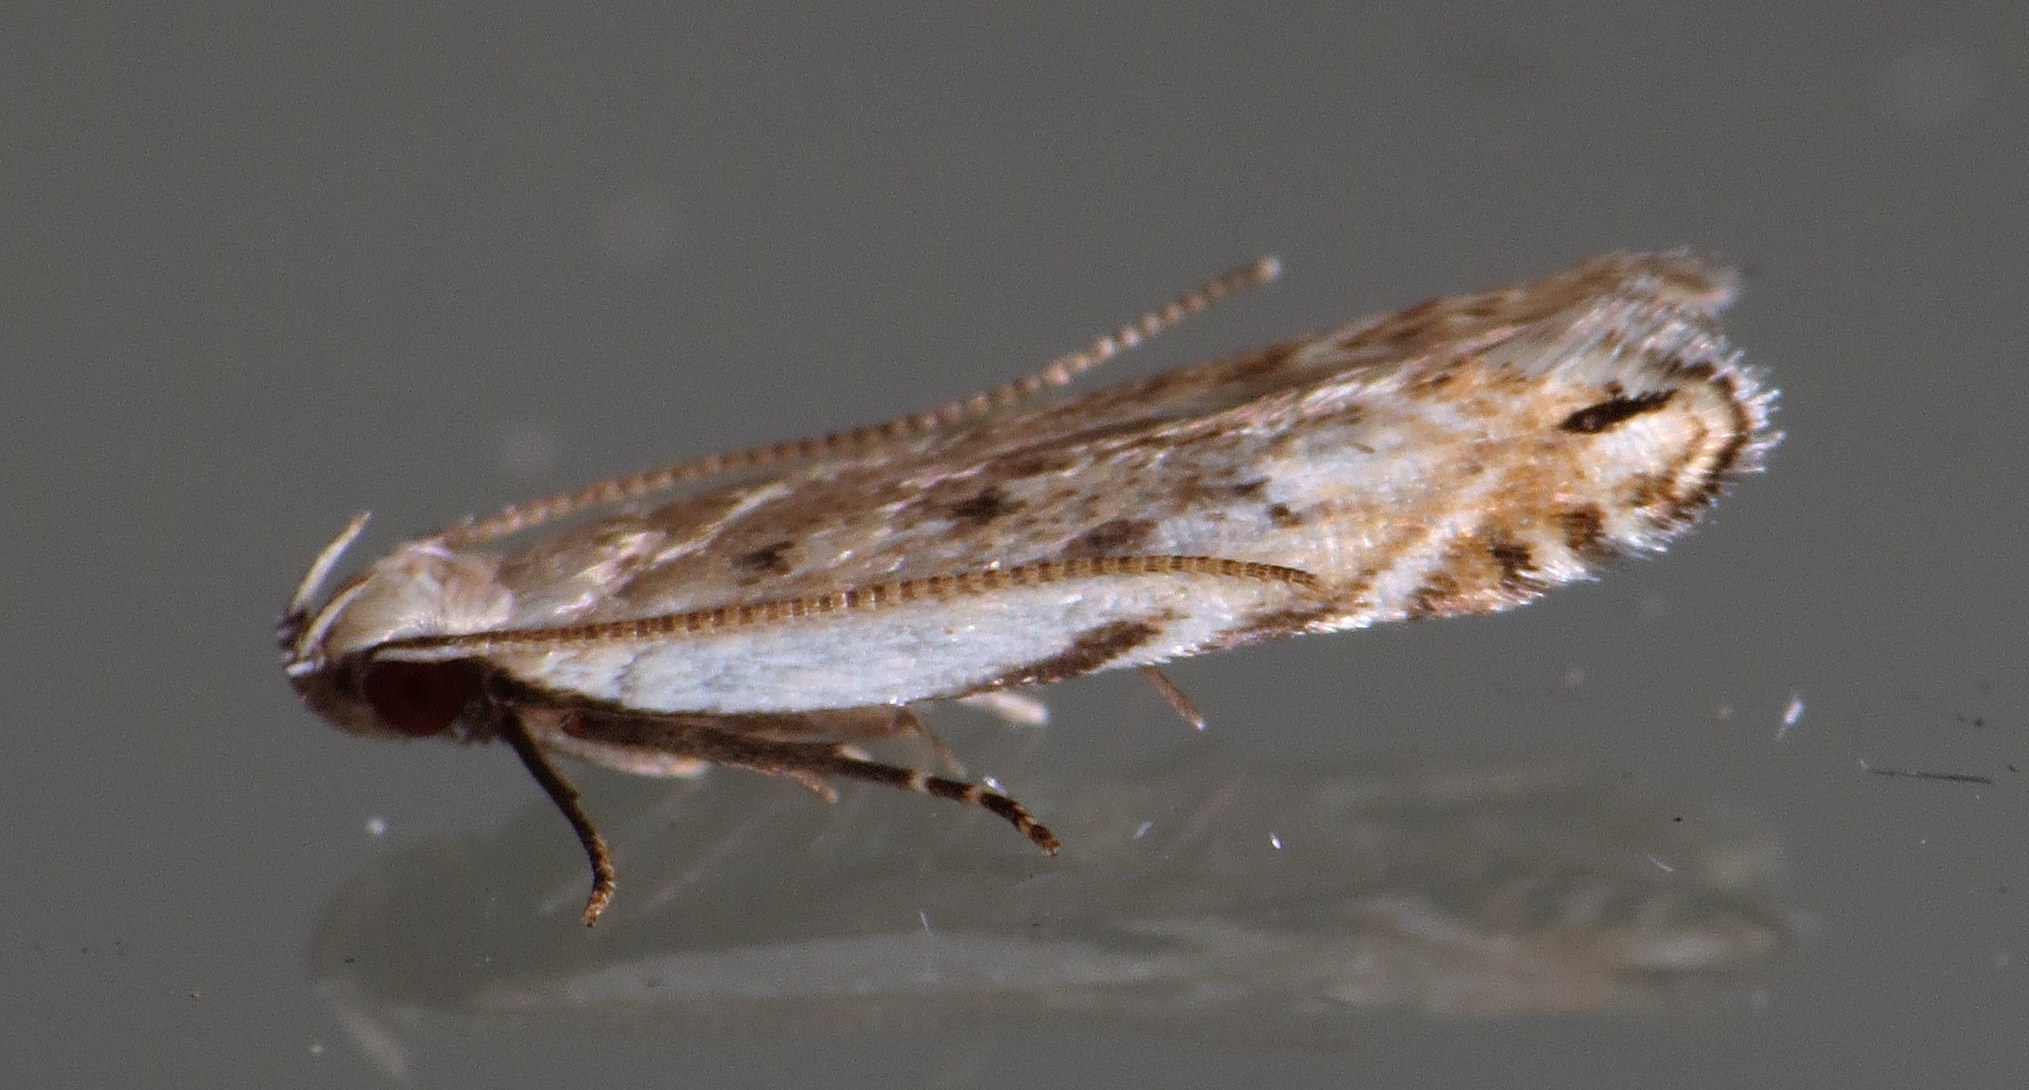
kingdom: Animalia
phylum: Arthropoda
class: Insecta
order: Lepidoptera
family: Gelechiidae
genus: Battaristis
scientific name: Battaristis nigratomella
